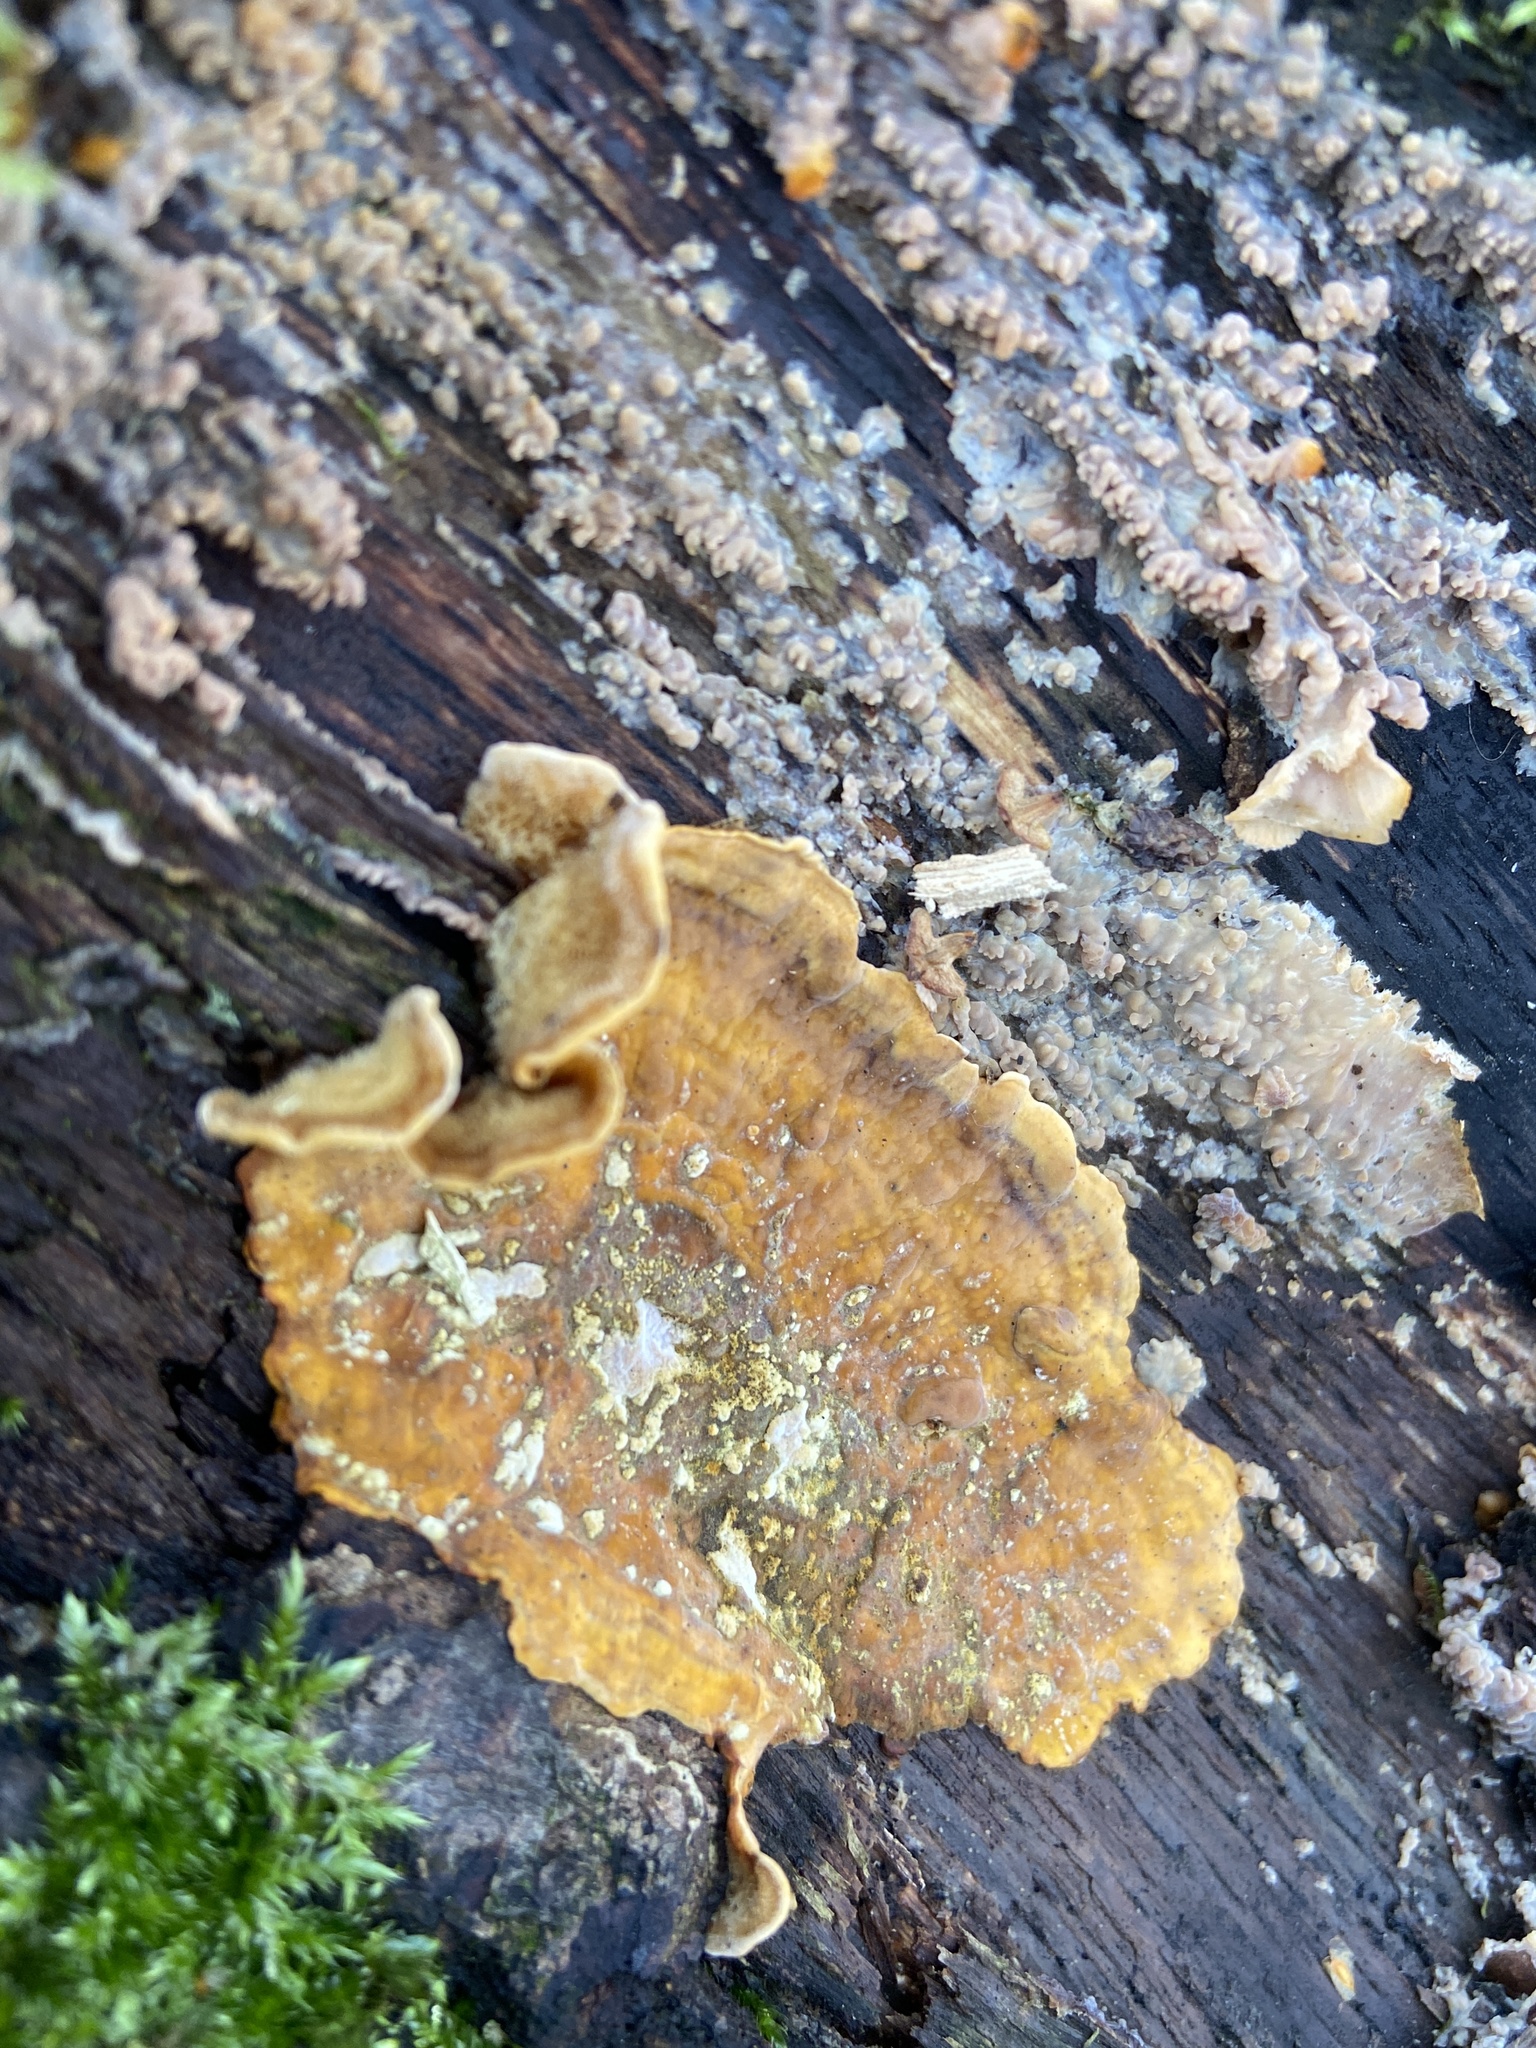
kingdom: Fungi
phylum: Basidiomycota
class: Agaricomycetes
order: Russulales
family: Stereaceae
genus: Stereum
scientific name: Stereum hirsutum
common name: Hairy curtain crust
